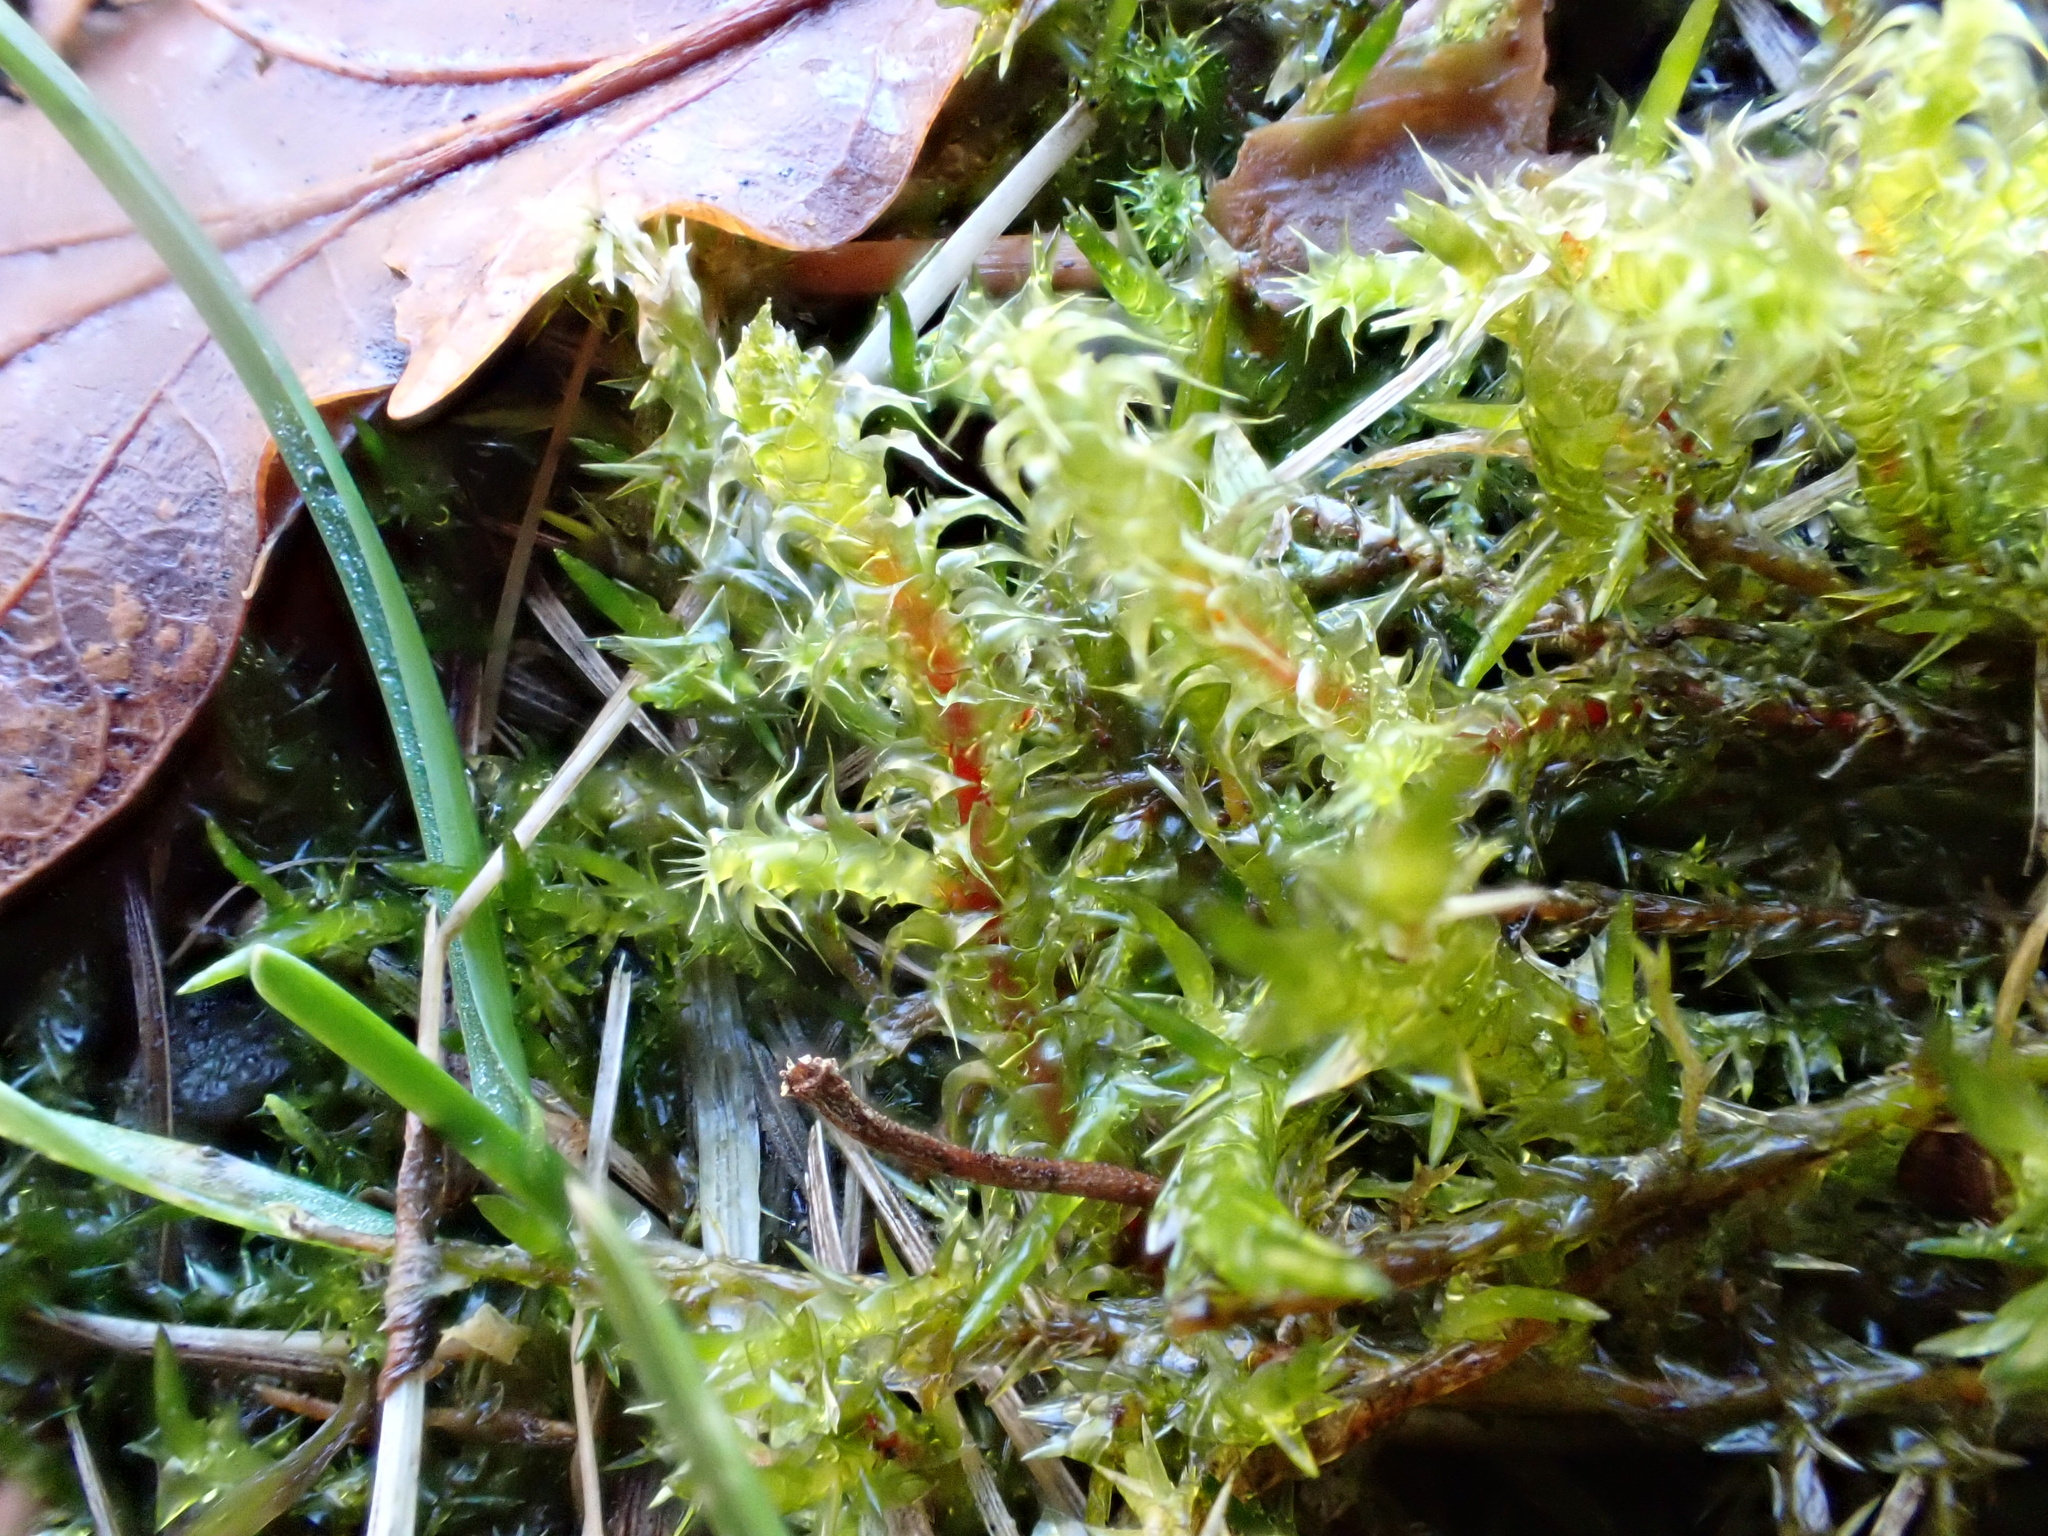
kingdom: Plantae
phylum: Bryophyta
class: Bryopsida
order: Hypnales
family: Hylocomiaceae
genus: Rhytidiadelphus
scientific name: Rhytidiadelphus squarrosus
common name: Springy turf-moss
